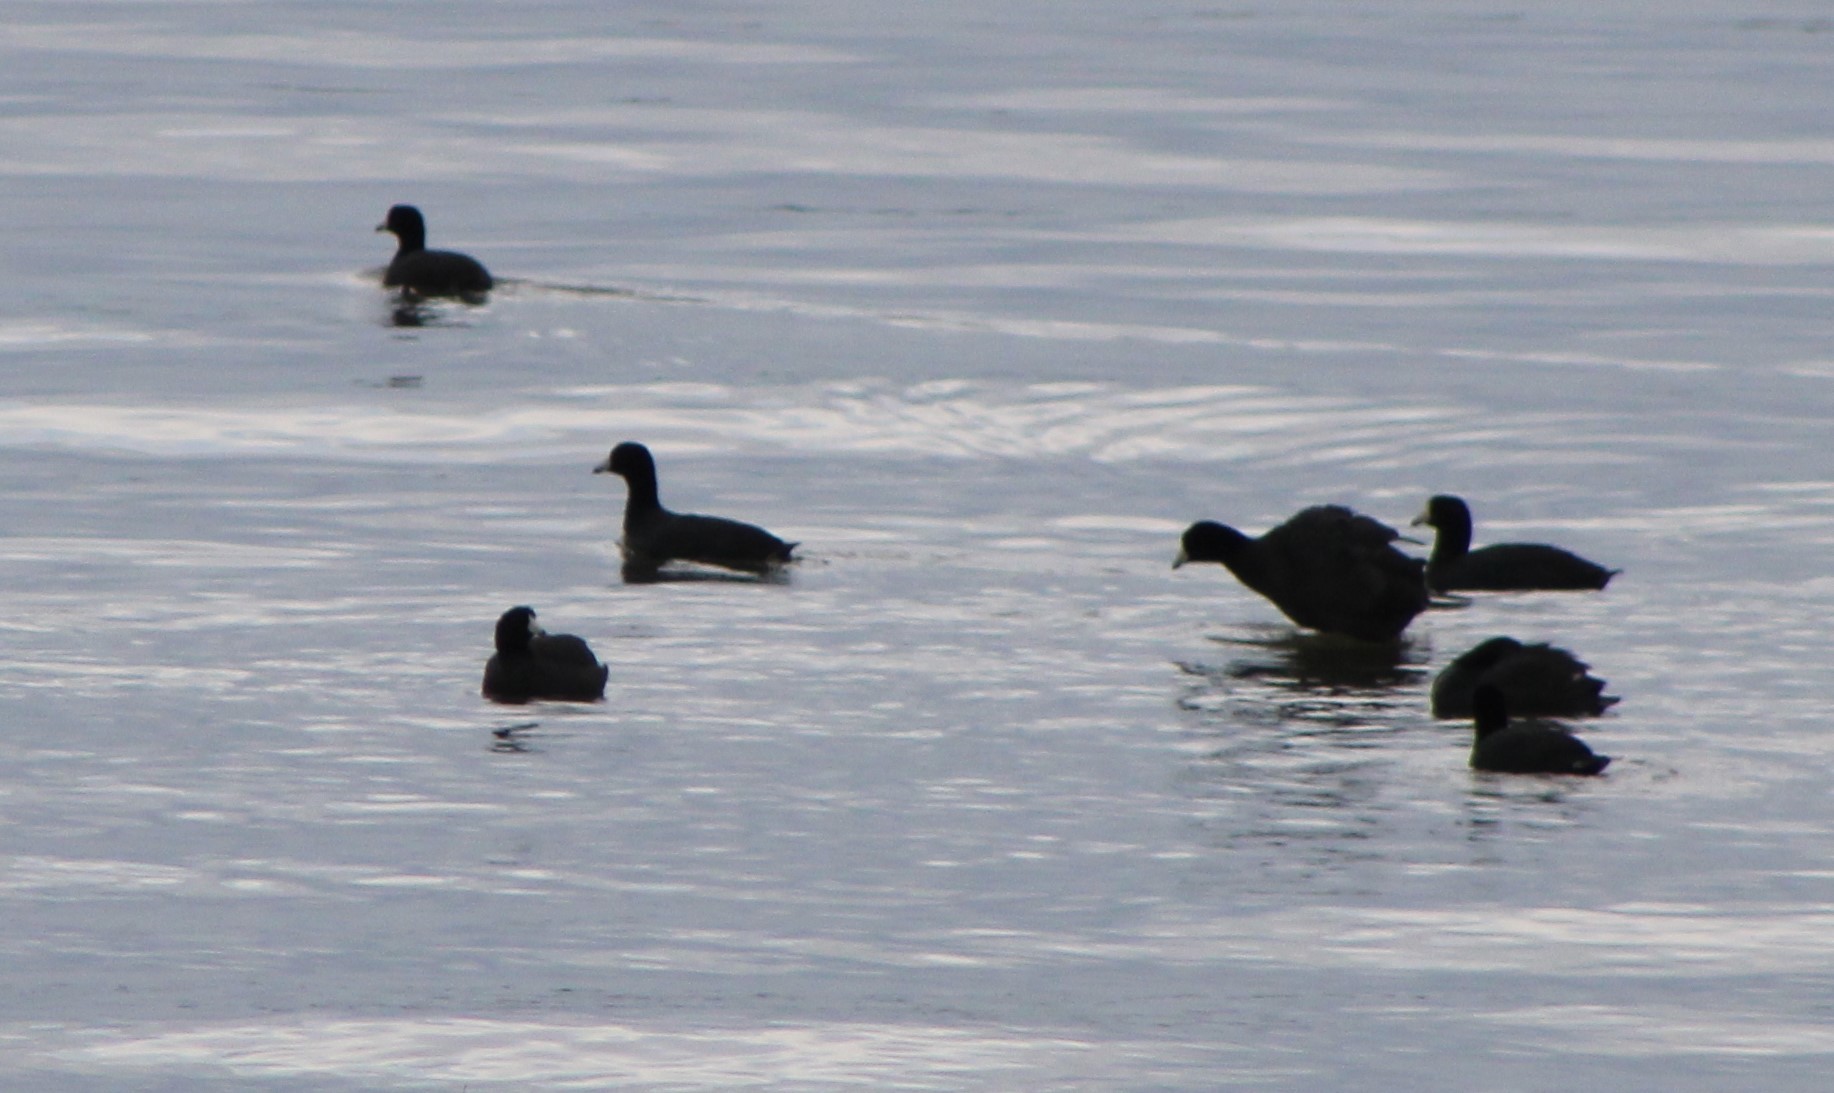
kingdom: Animalia
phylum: Chordata
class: Aves
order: Gruiformes
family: Rallidae
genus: Fulica
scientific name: Fulica americana
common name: American coot
